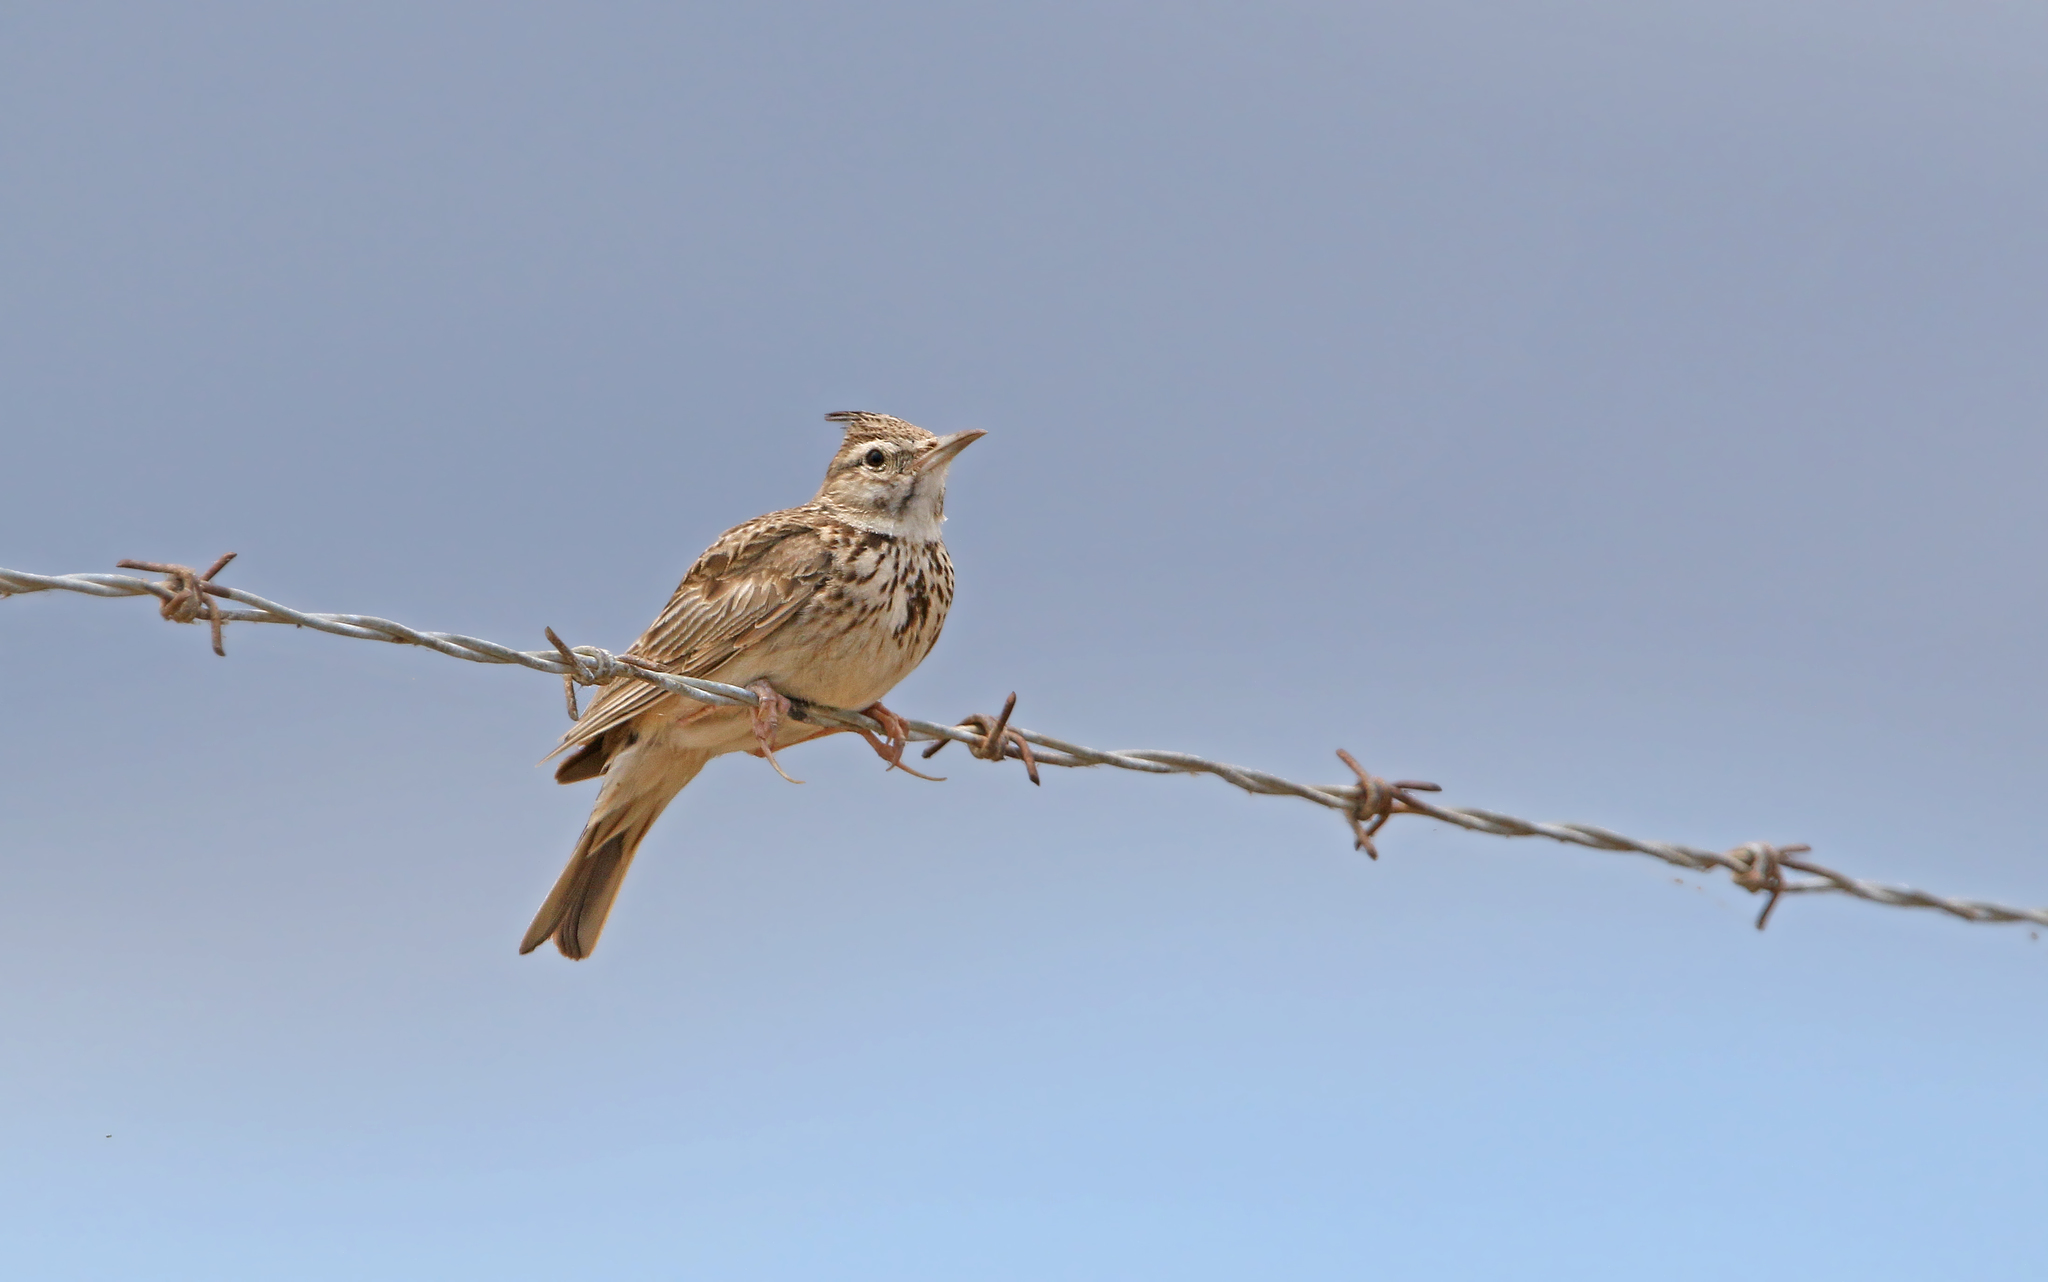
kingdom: Animalia
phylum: Chordata
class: Aves
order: Passeriformes
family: Alaudidae
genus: Galerida
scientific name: Galerida cristata
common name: Crested lark
